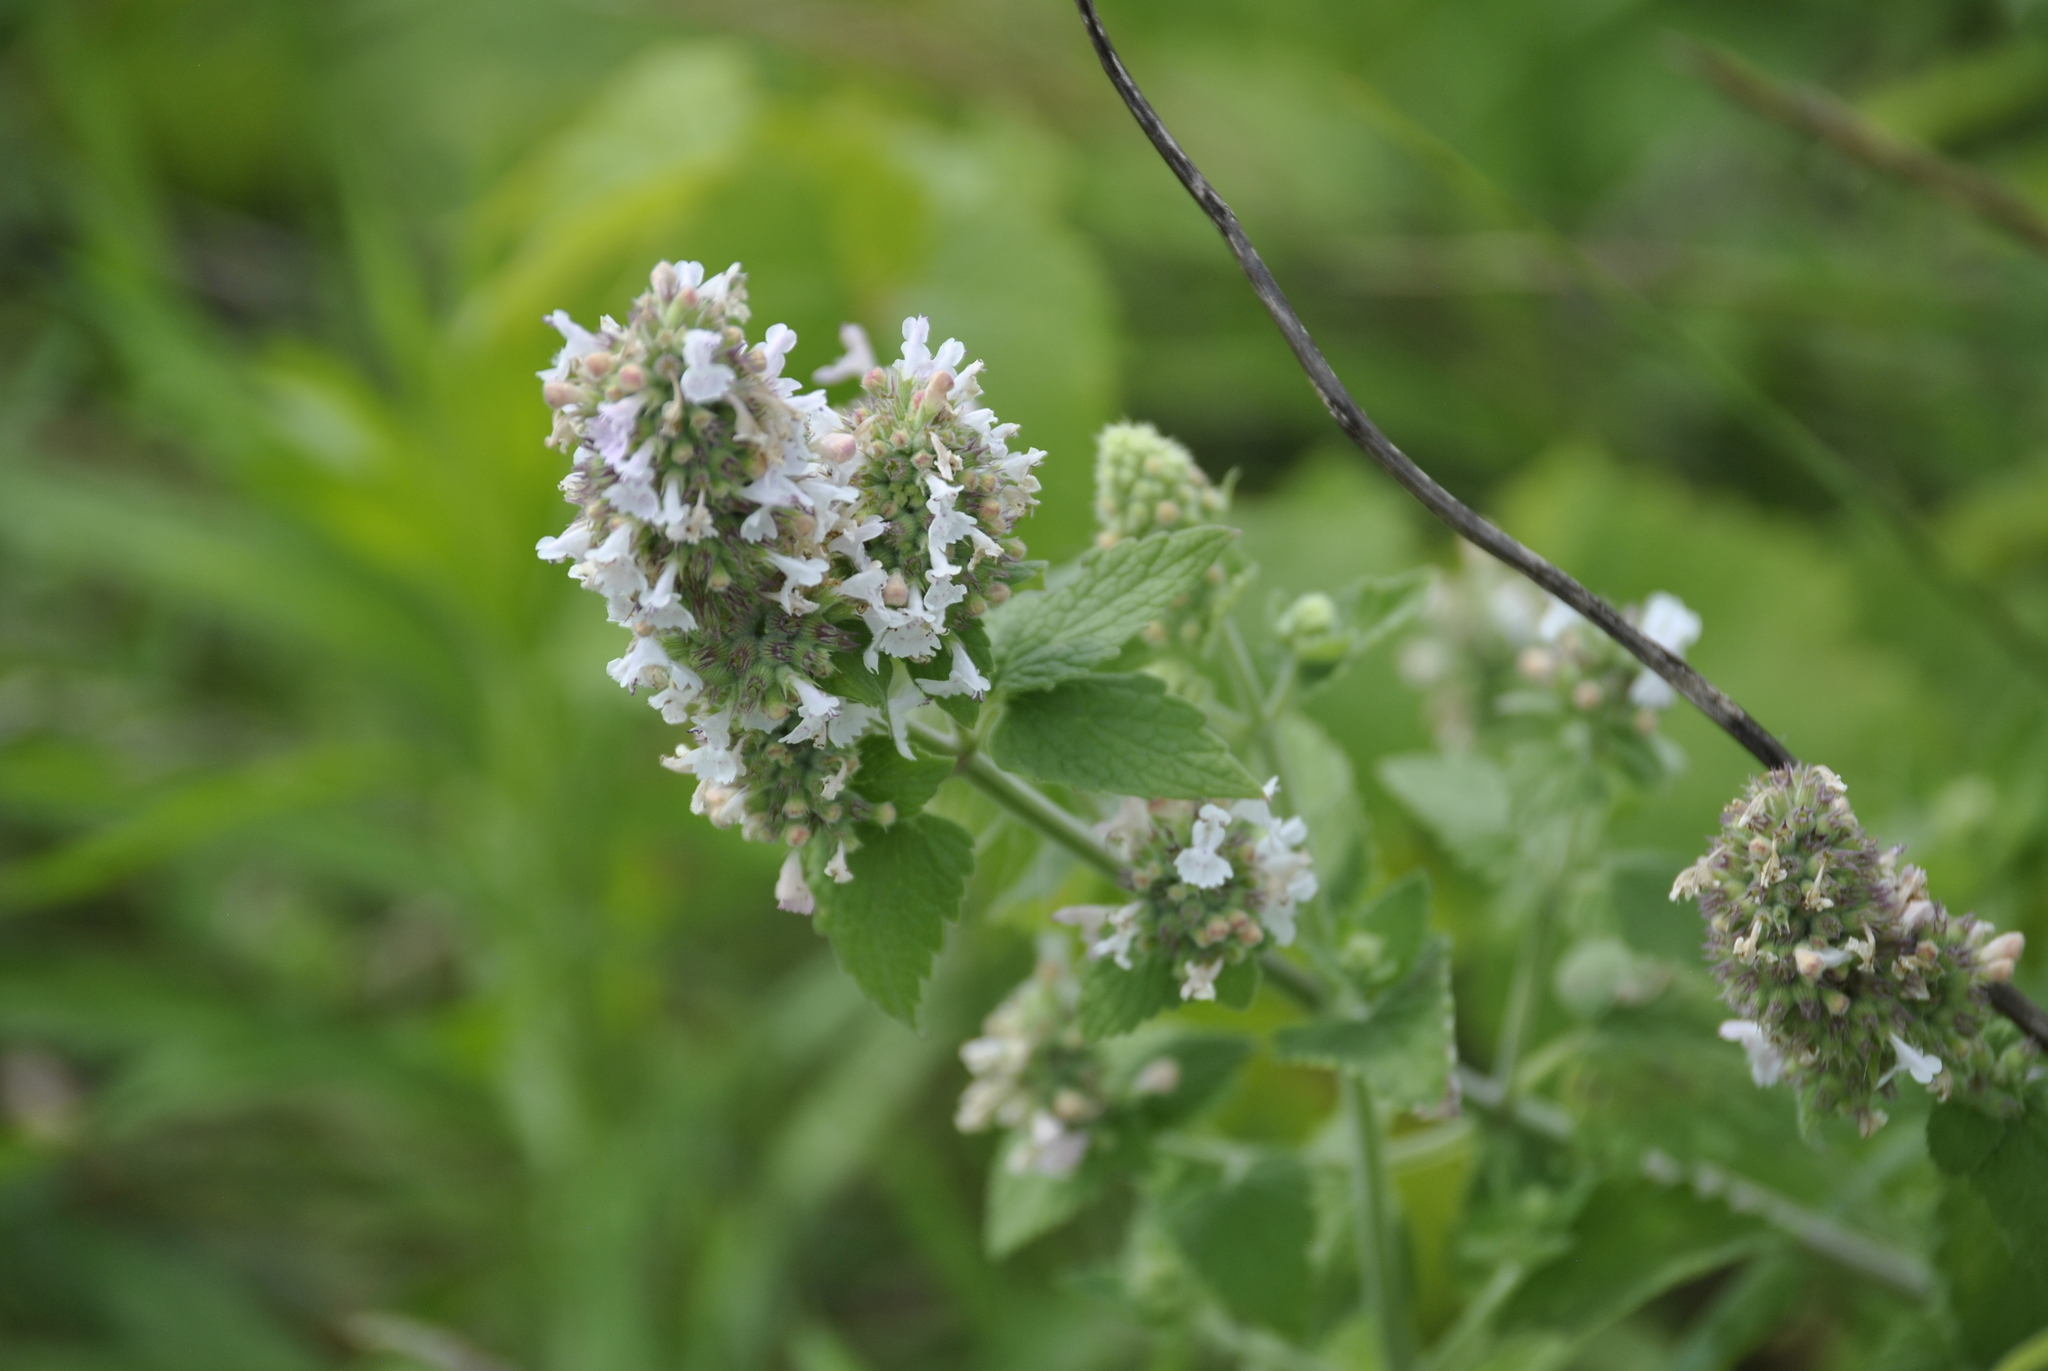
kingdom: Plantae
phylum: Tracheophyta
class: Magnoliopsida
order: Lamiales
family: Lamiaceae
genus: Nepeta
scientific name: Nepeta cataria
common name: Catnip
